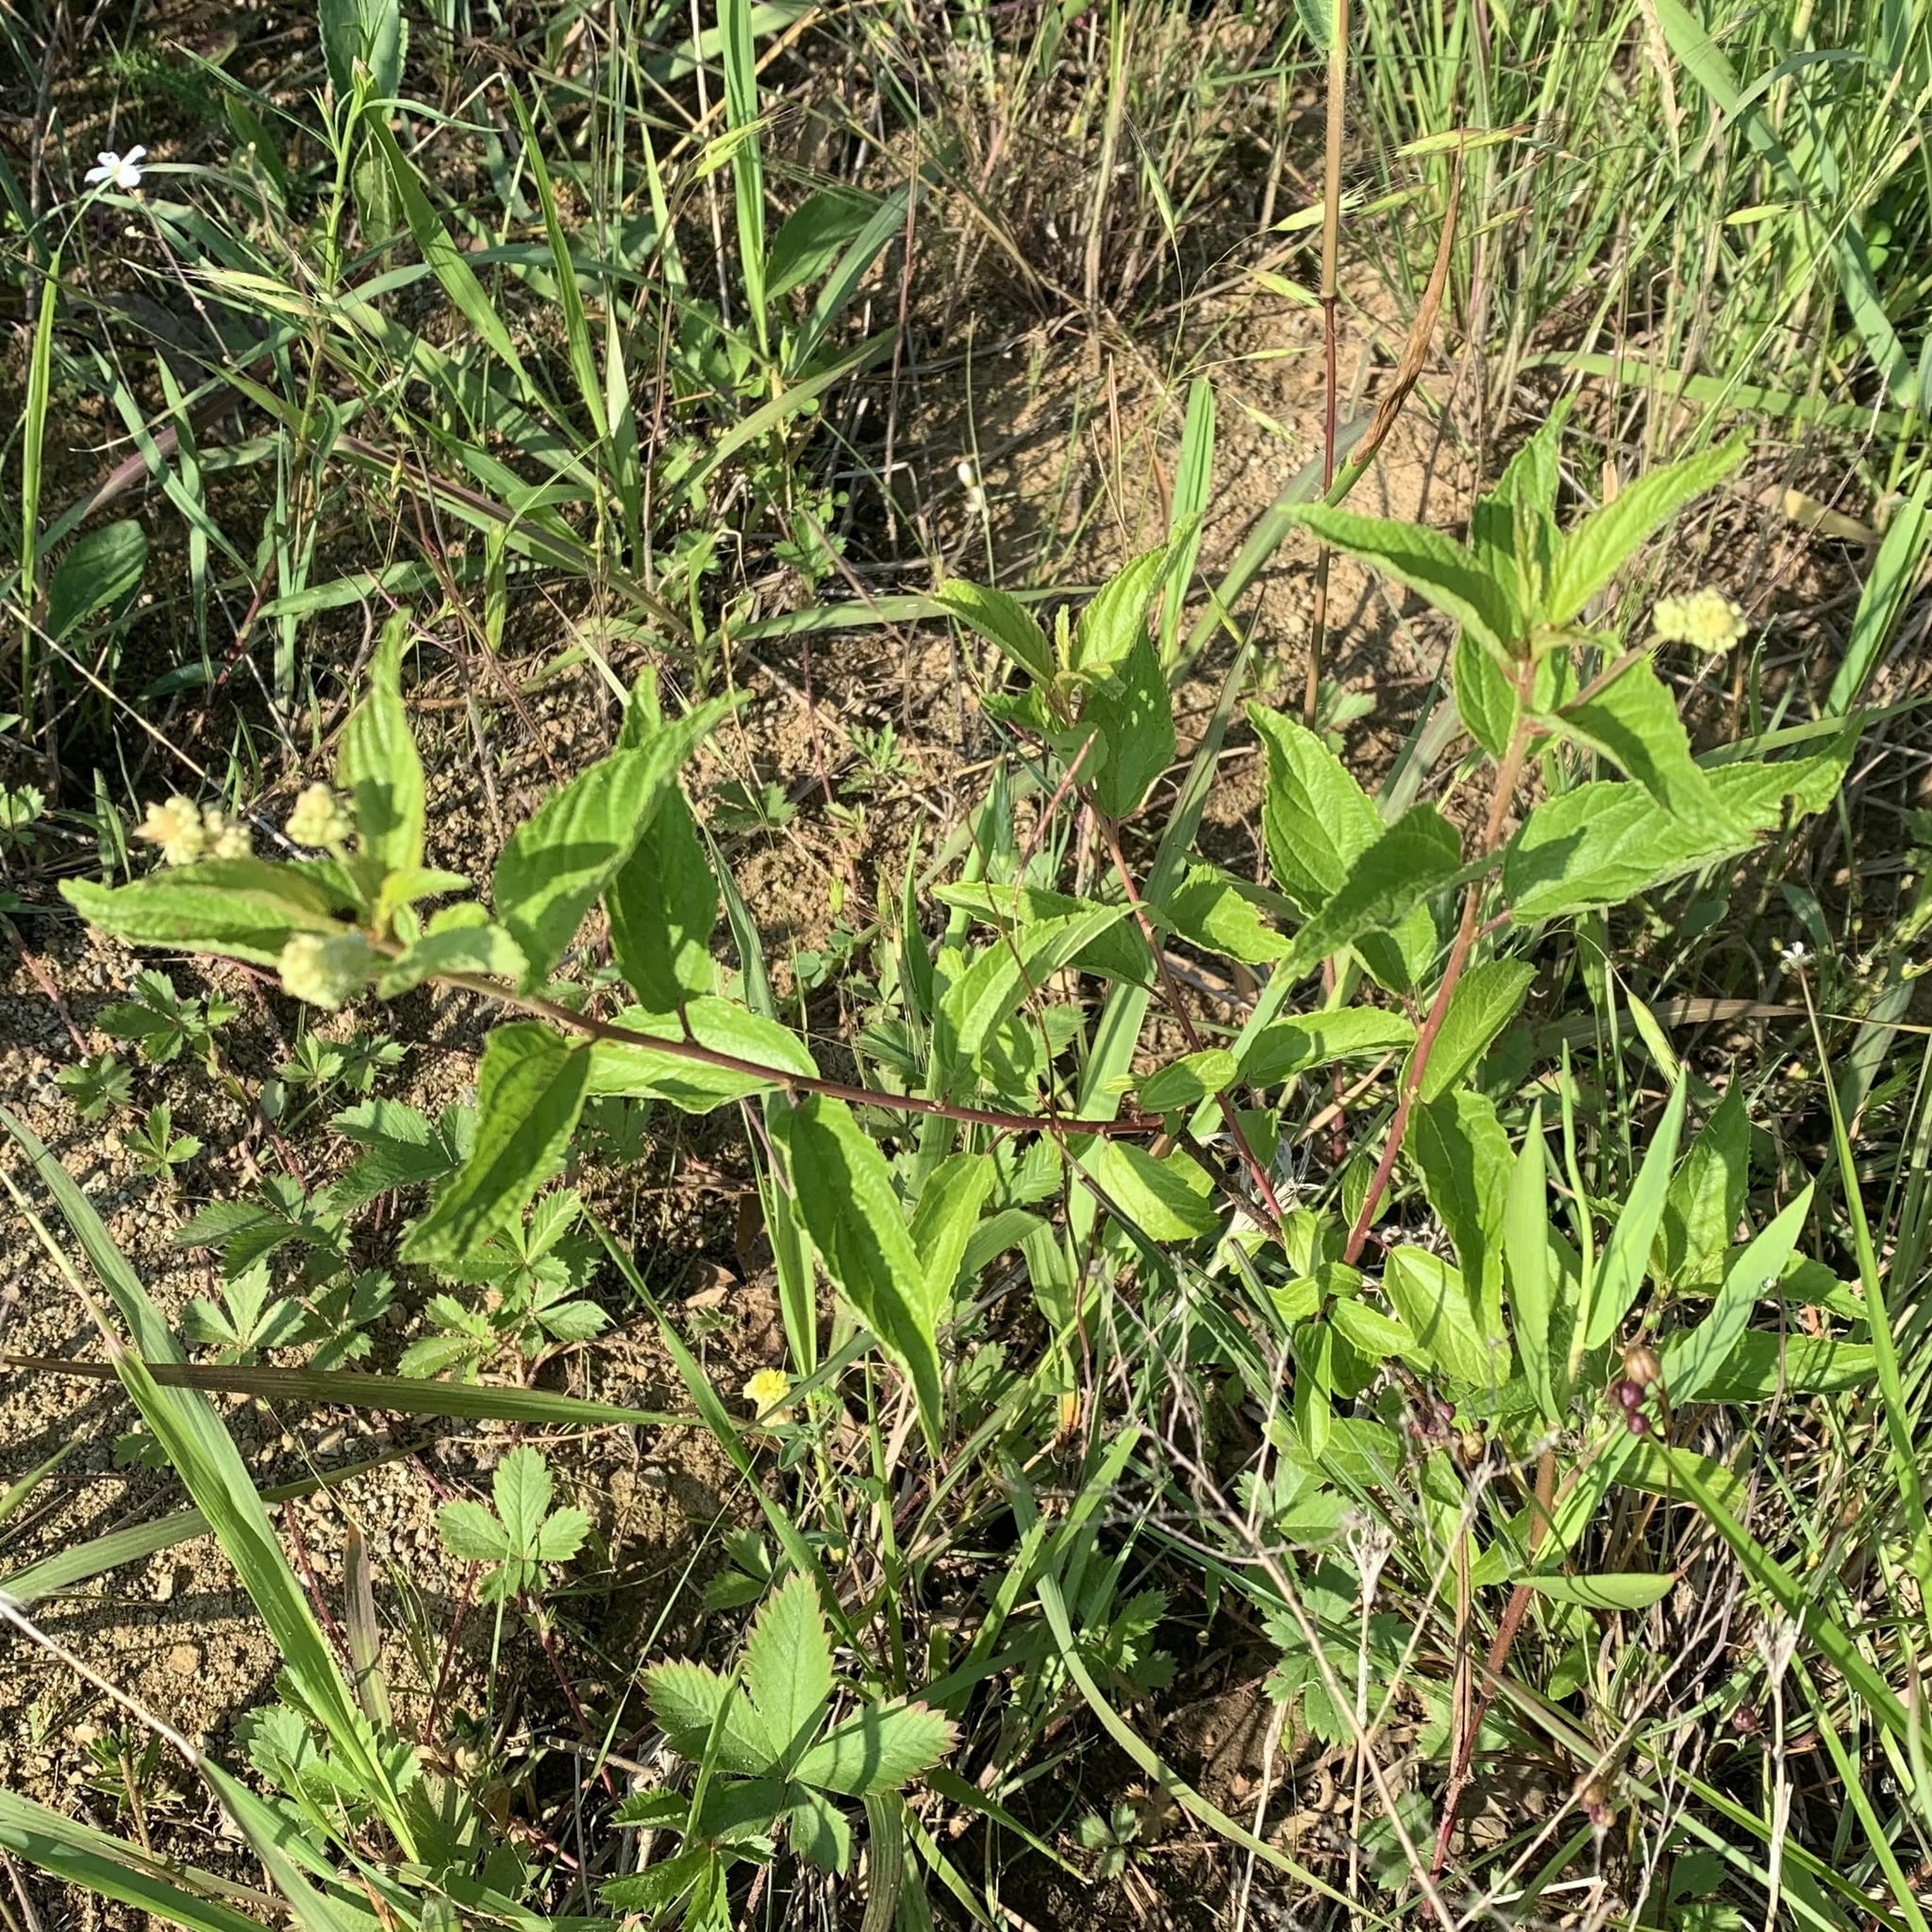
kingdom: Plantae
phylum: Tracheophyta
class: Magnoliopsida
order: Rosales
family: Rhamnaceae
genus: Ceanothus
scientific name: Ceanothus americanus
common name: Redroot
